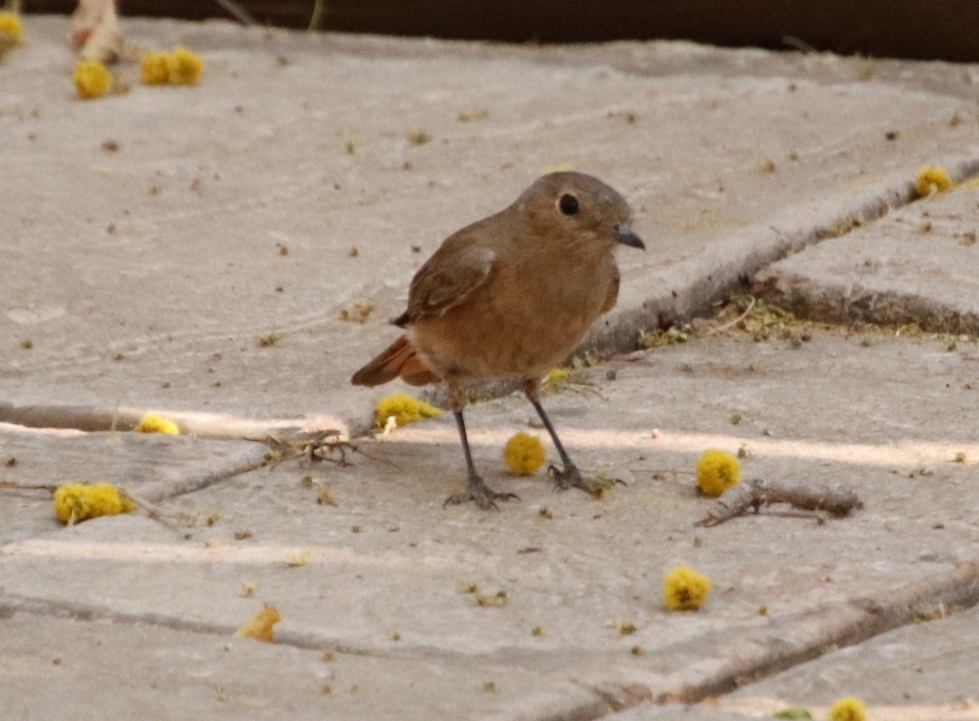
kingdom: Animalia
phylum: Chordata
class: Aves
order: Passeriformes
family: Muscicapidae
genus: Oenanthe
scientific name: Oenanthe familiaris
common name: Familiar chat
